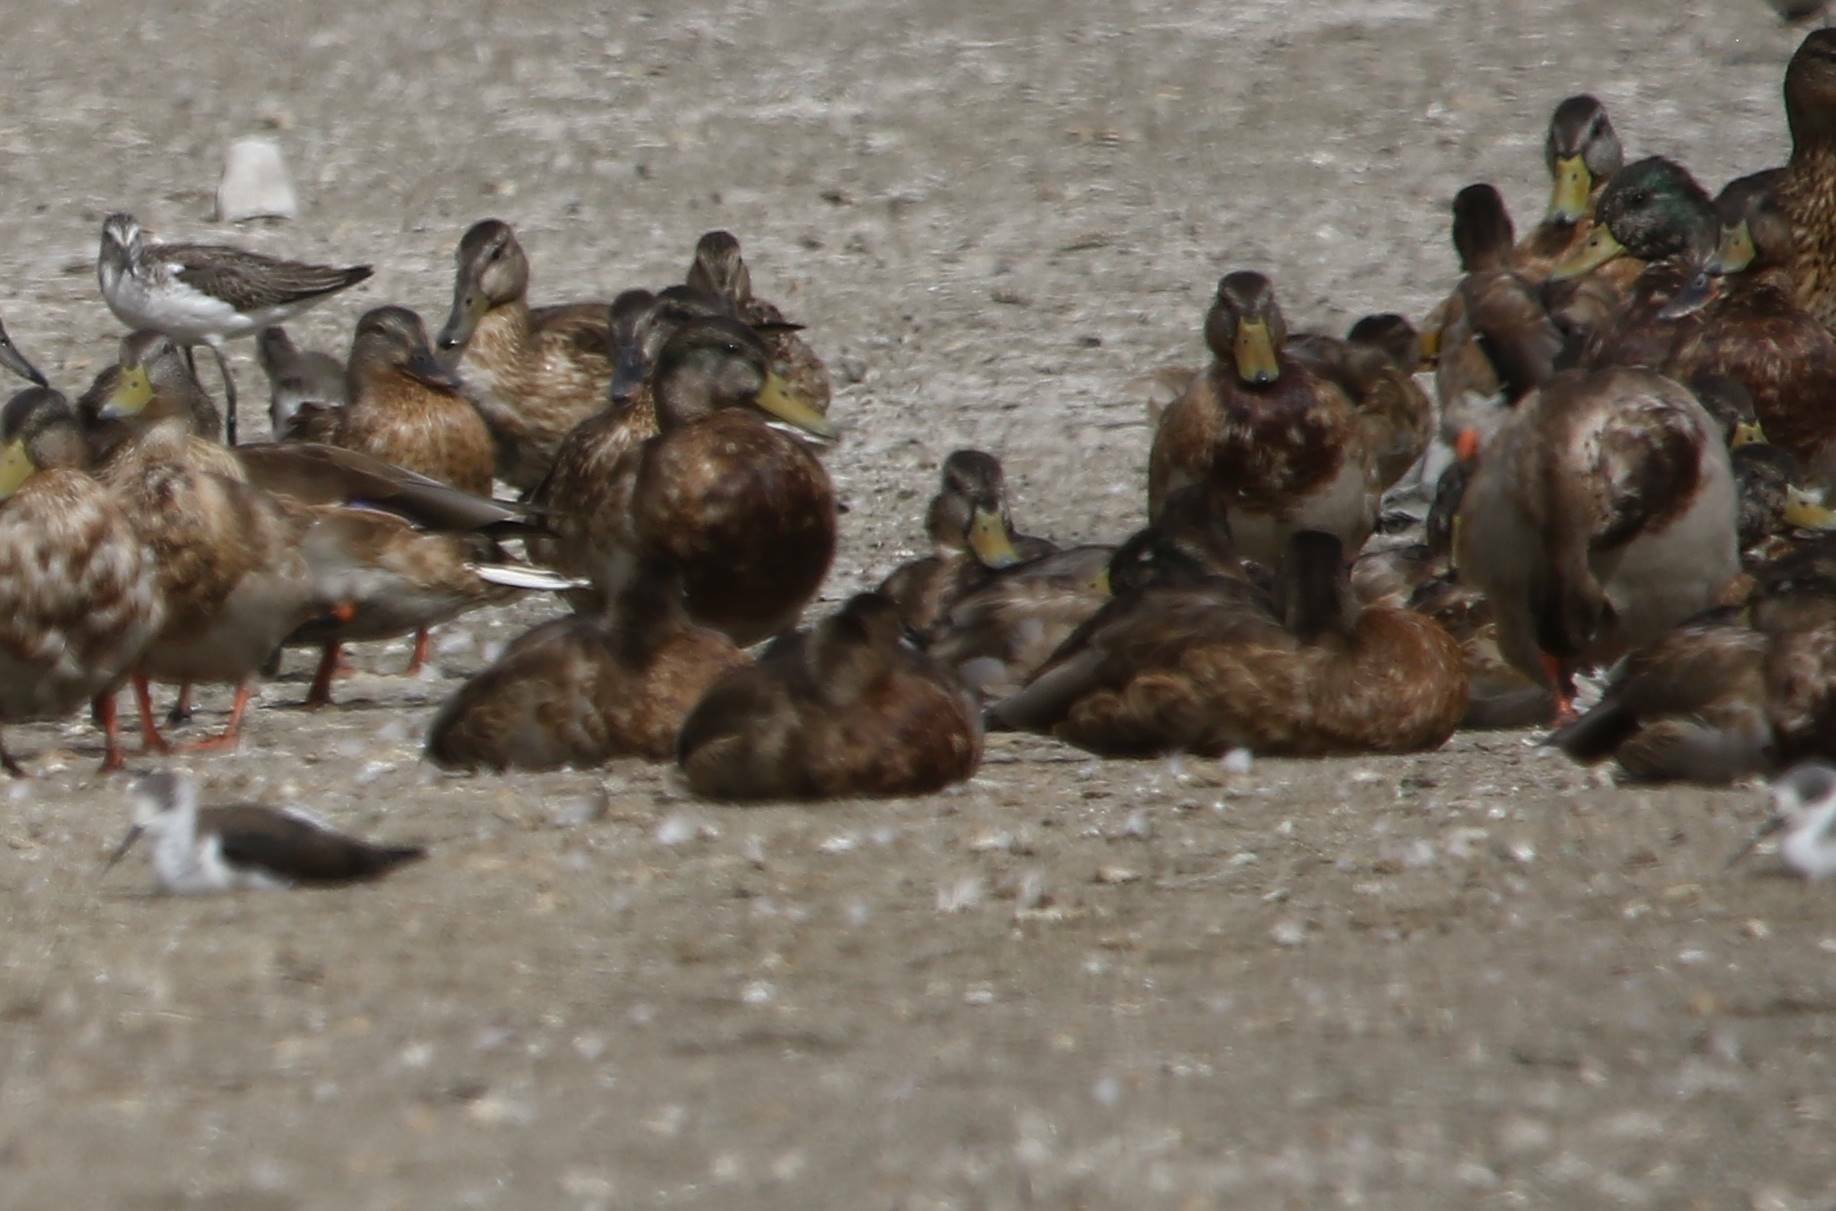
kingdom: Animalia
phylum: Chordata
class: Aves
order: Anseriformes
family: Anatidae
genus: Anas
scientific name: Anas platyrhynchos
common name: Mallard
